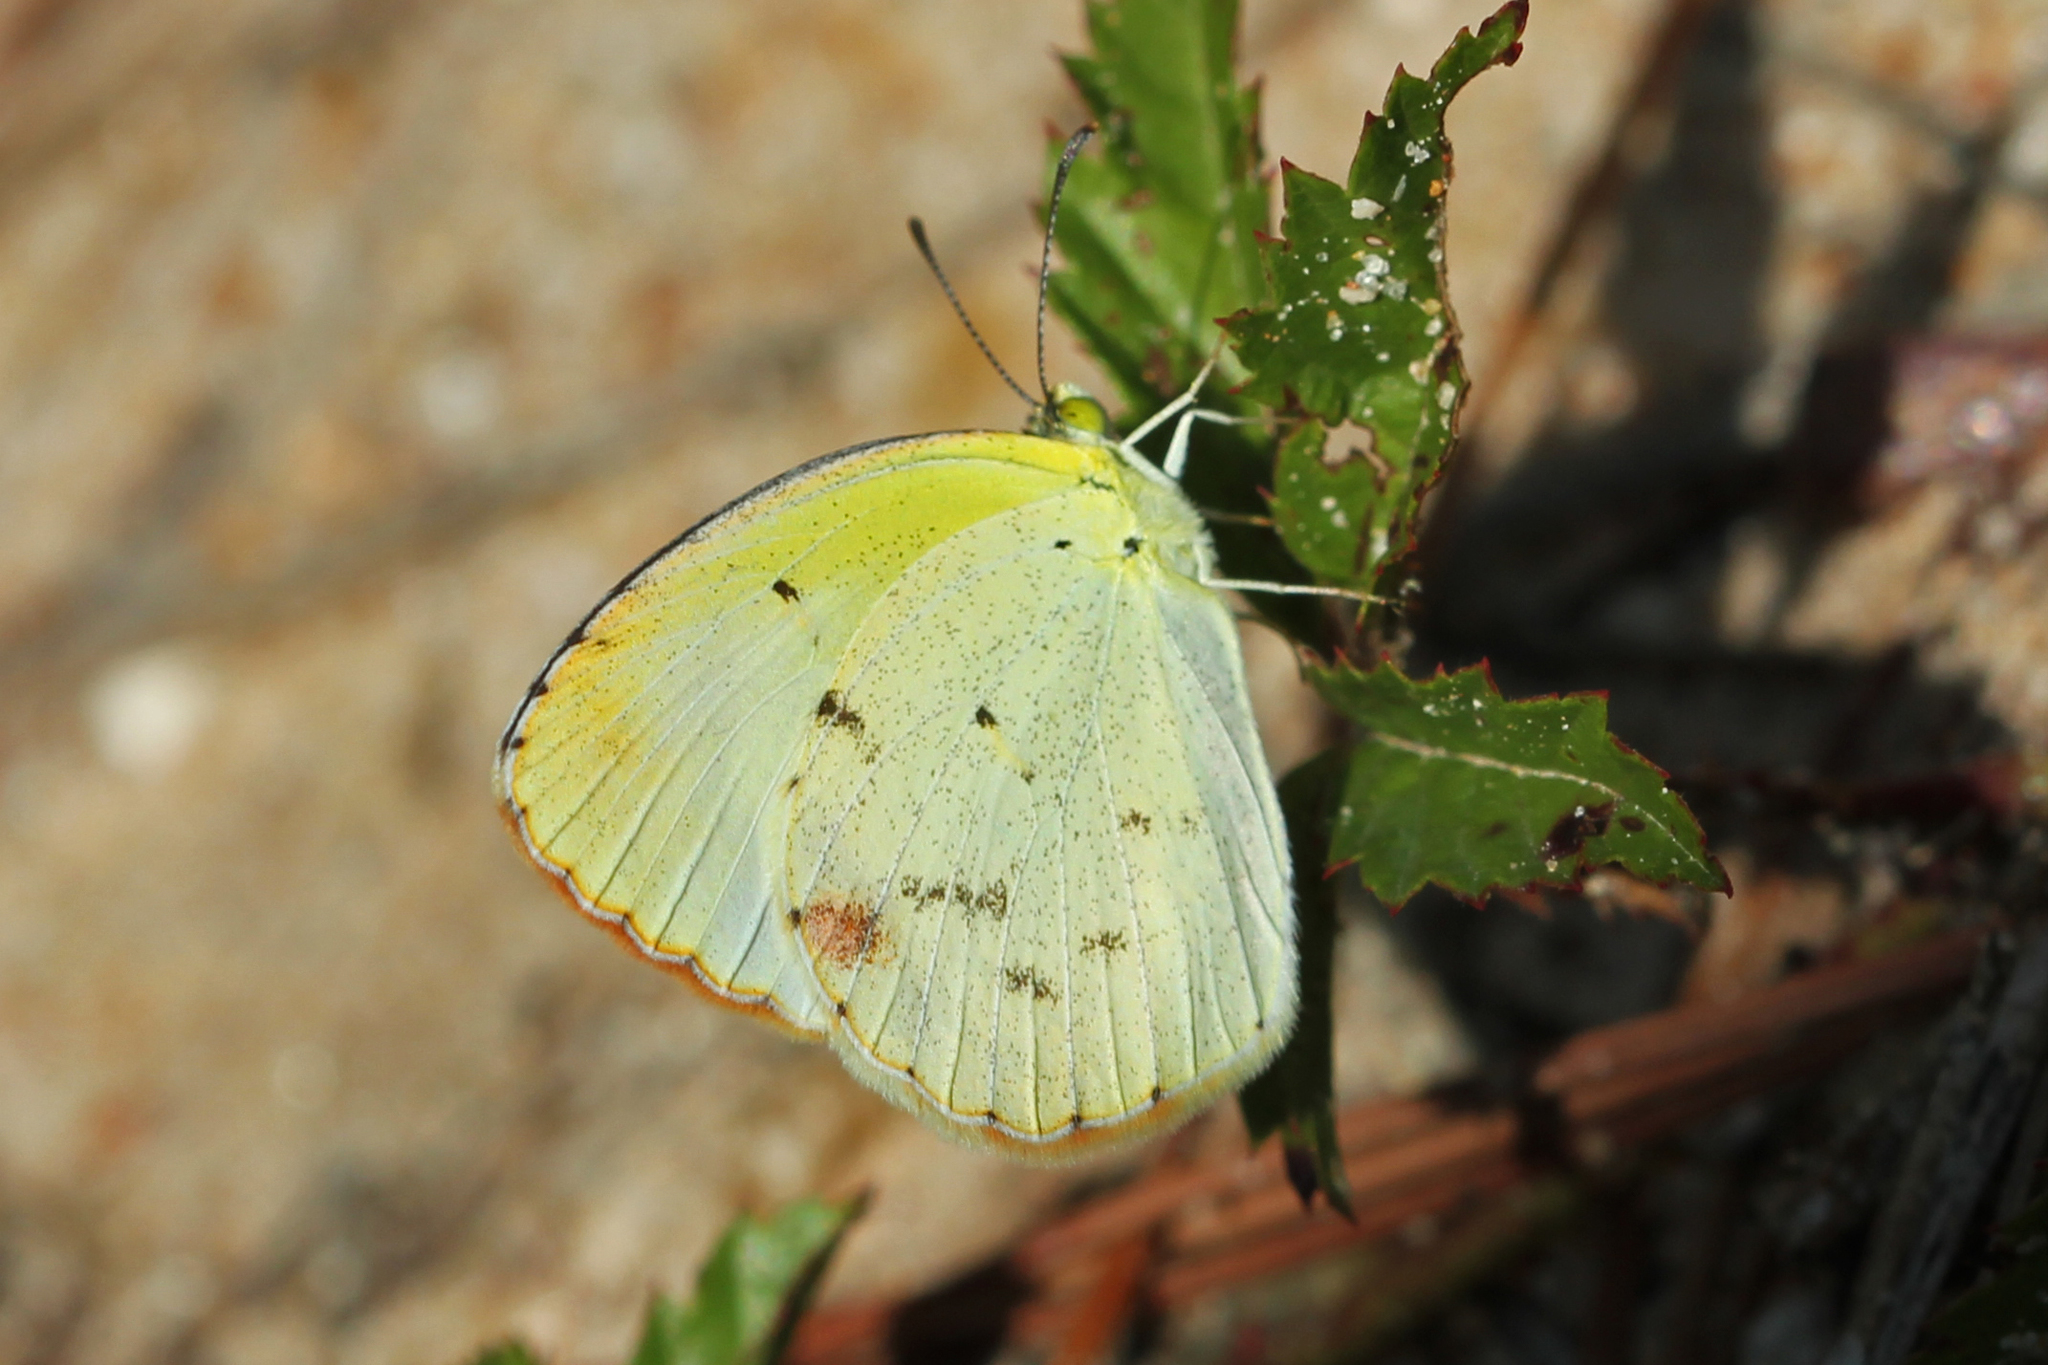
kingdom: Animalia
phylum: Arthropoda
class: Insecta
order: Lepidoptera
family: Pieridae
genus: Pyrisitia
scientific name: Pyrisitia lisa
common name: Little yellow
